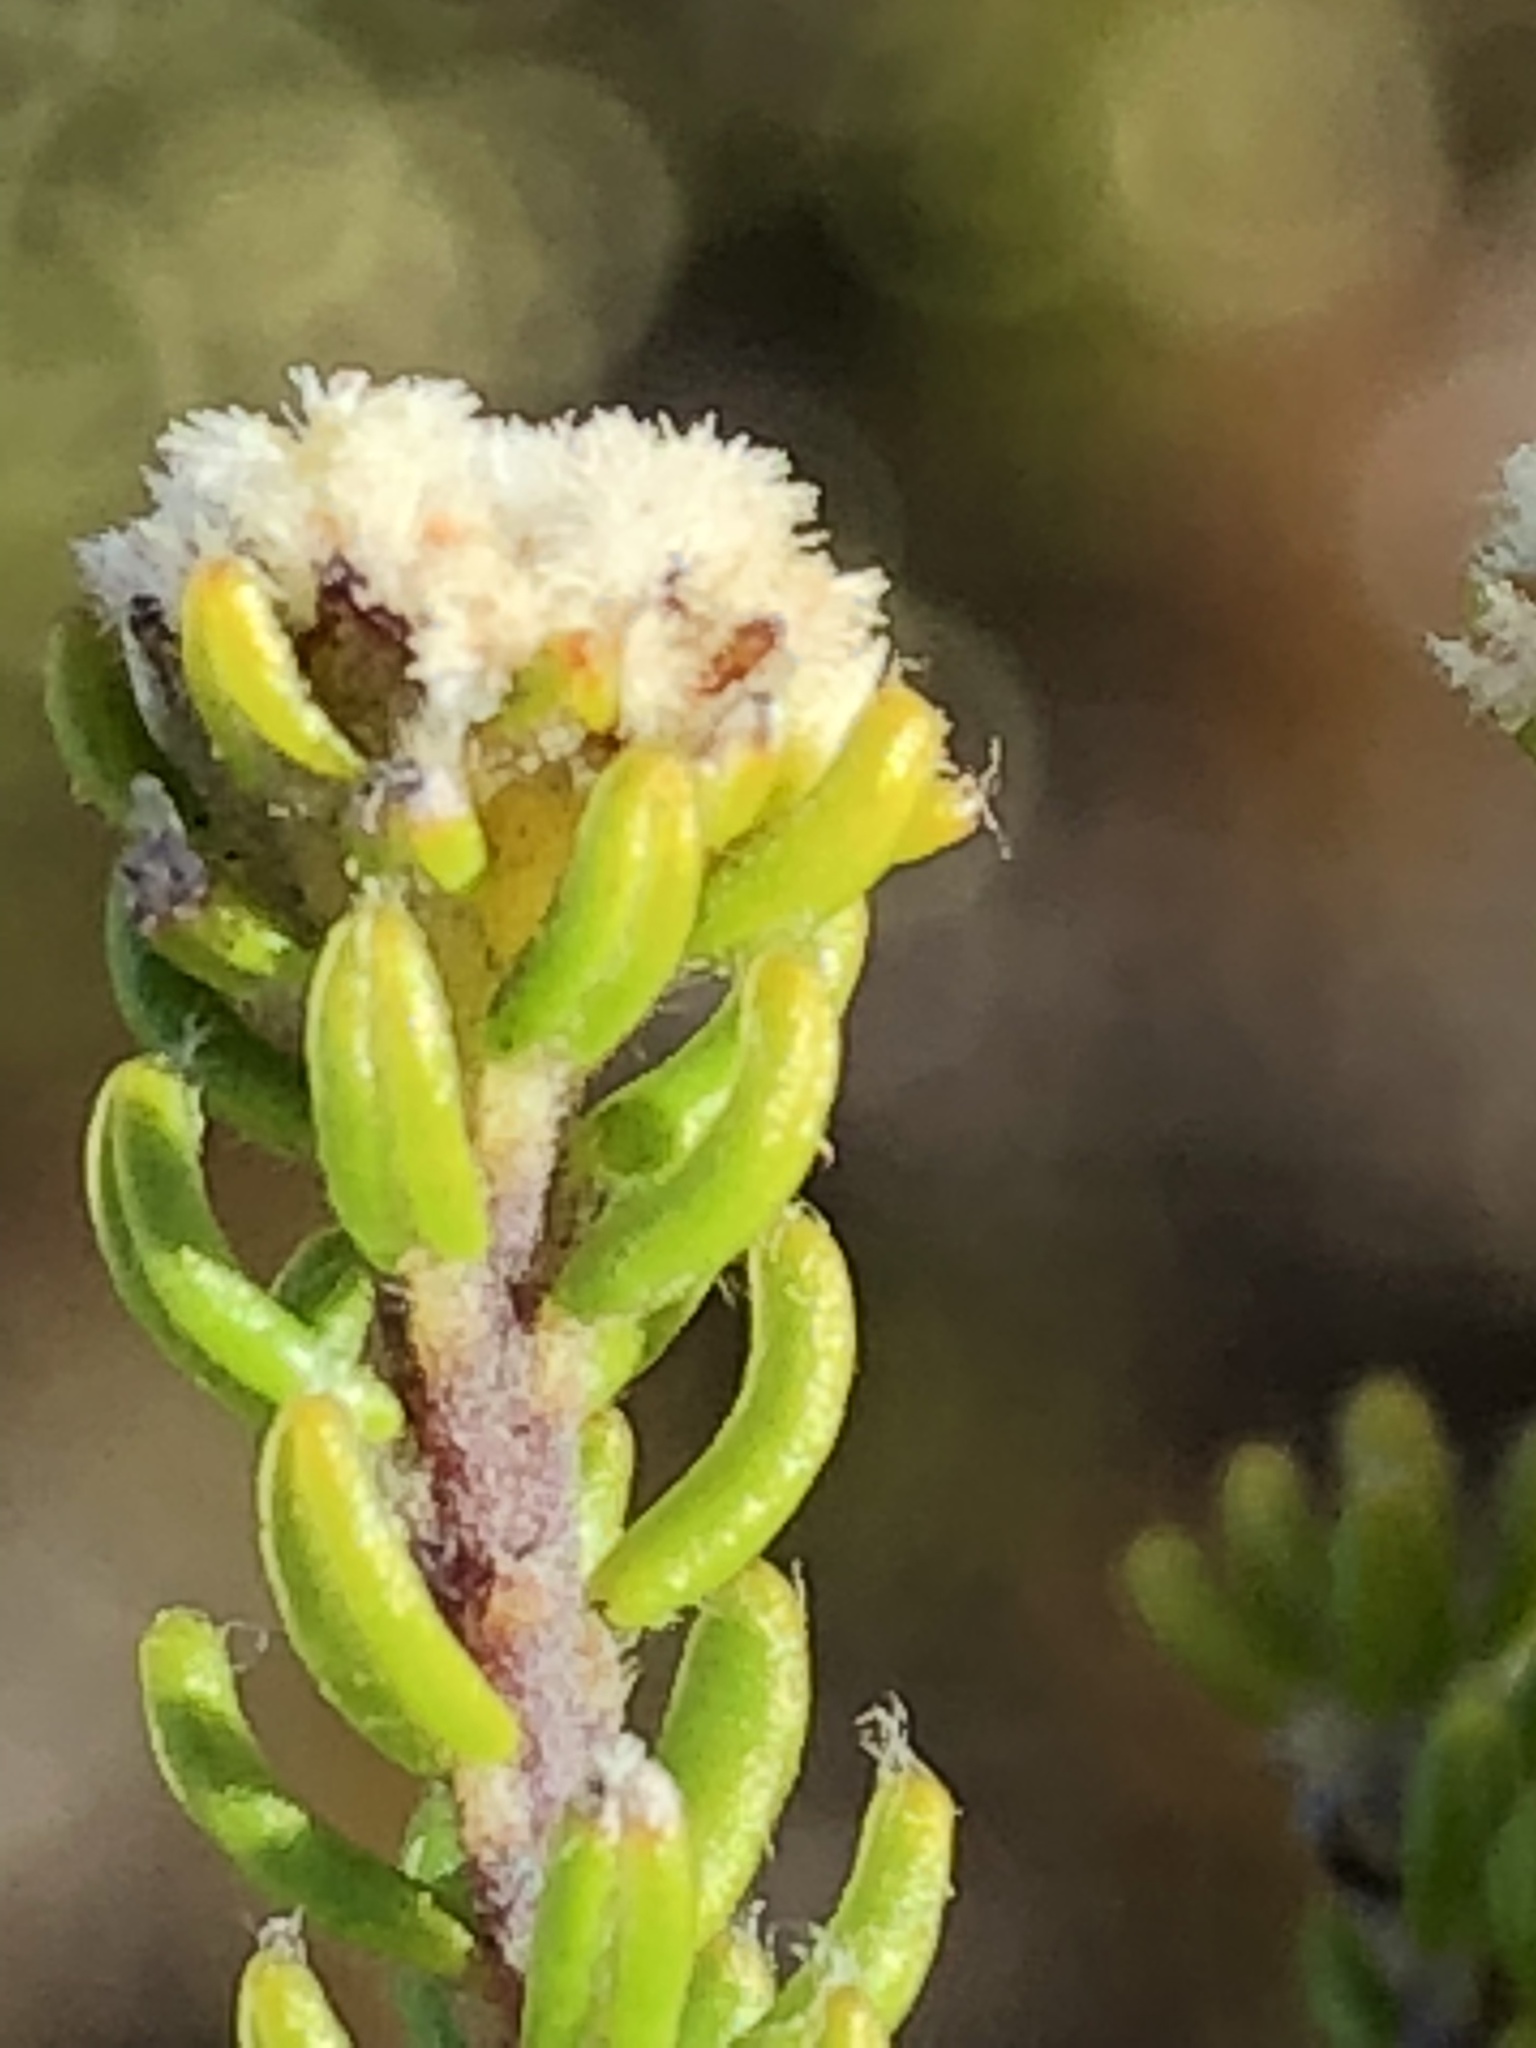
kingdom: Plantae
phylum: Tracheophyta
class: Magnoliopsida
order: Rosales
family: Rhamnaceae
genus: Phylica
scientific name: Phylica ericoides
